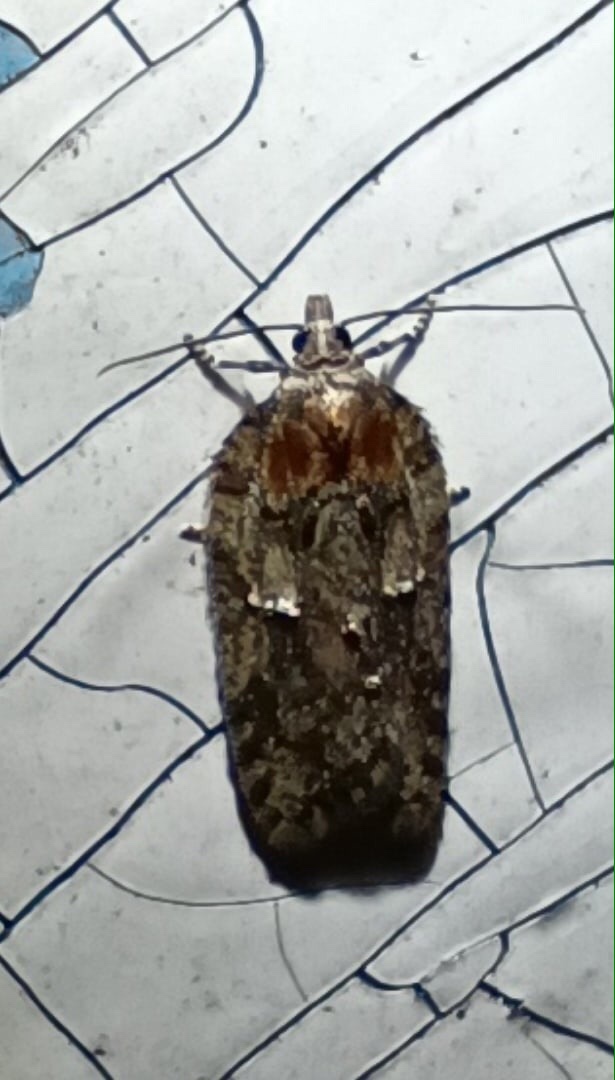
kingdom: Animalia
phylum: Arthropoda
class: Insecta
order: Lepidoptera
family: Tortricidae
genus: Acleris
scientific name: Acleris hastiana
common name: Sallow button
